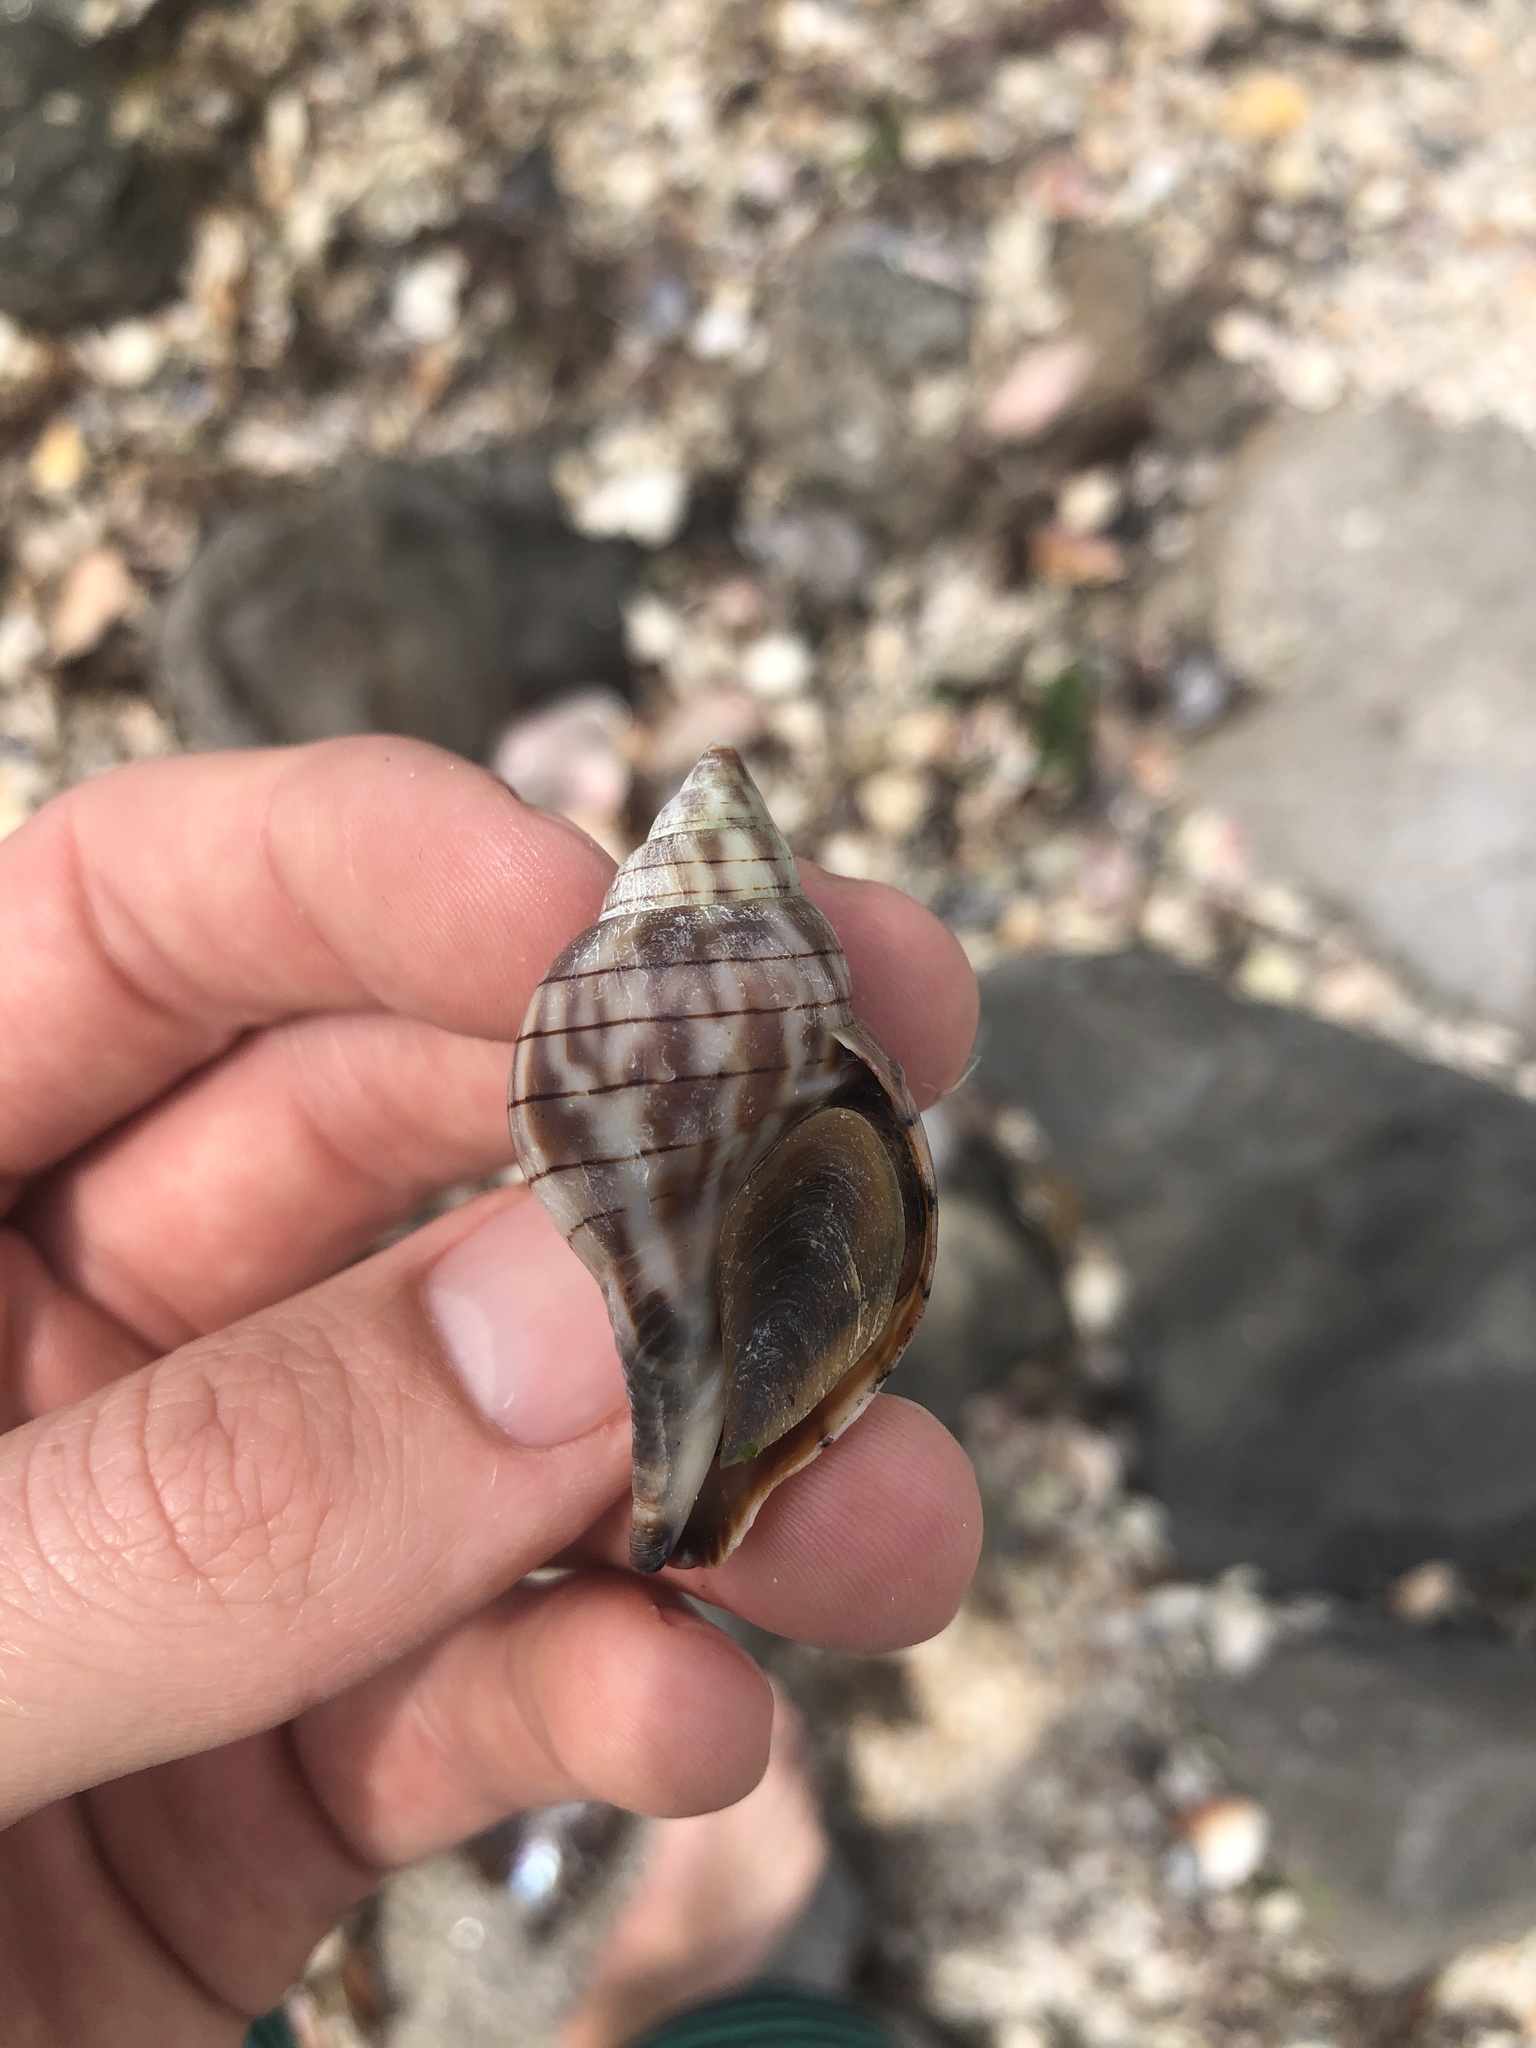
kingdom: Animalia
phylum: Mollusca
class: Gastropoda
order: Neogastropoda
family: Fasciolariidae
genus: Cinctura
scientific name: Cinctura hunteria
